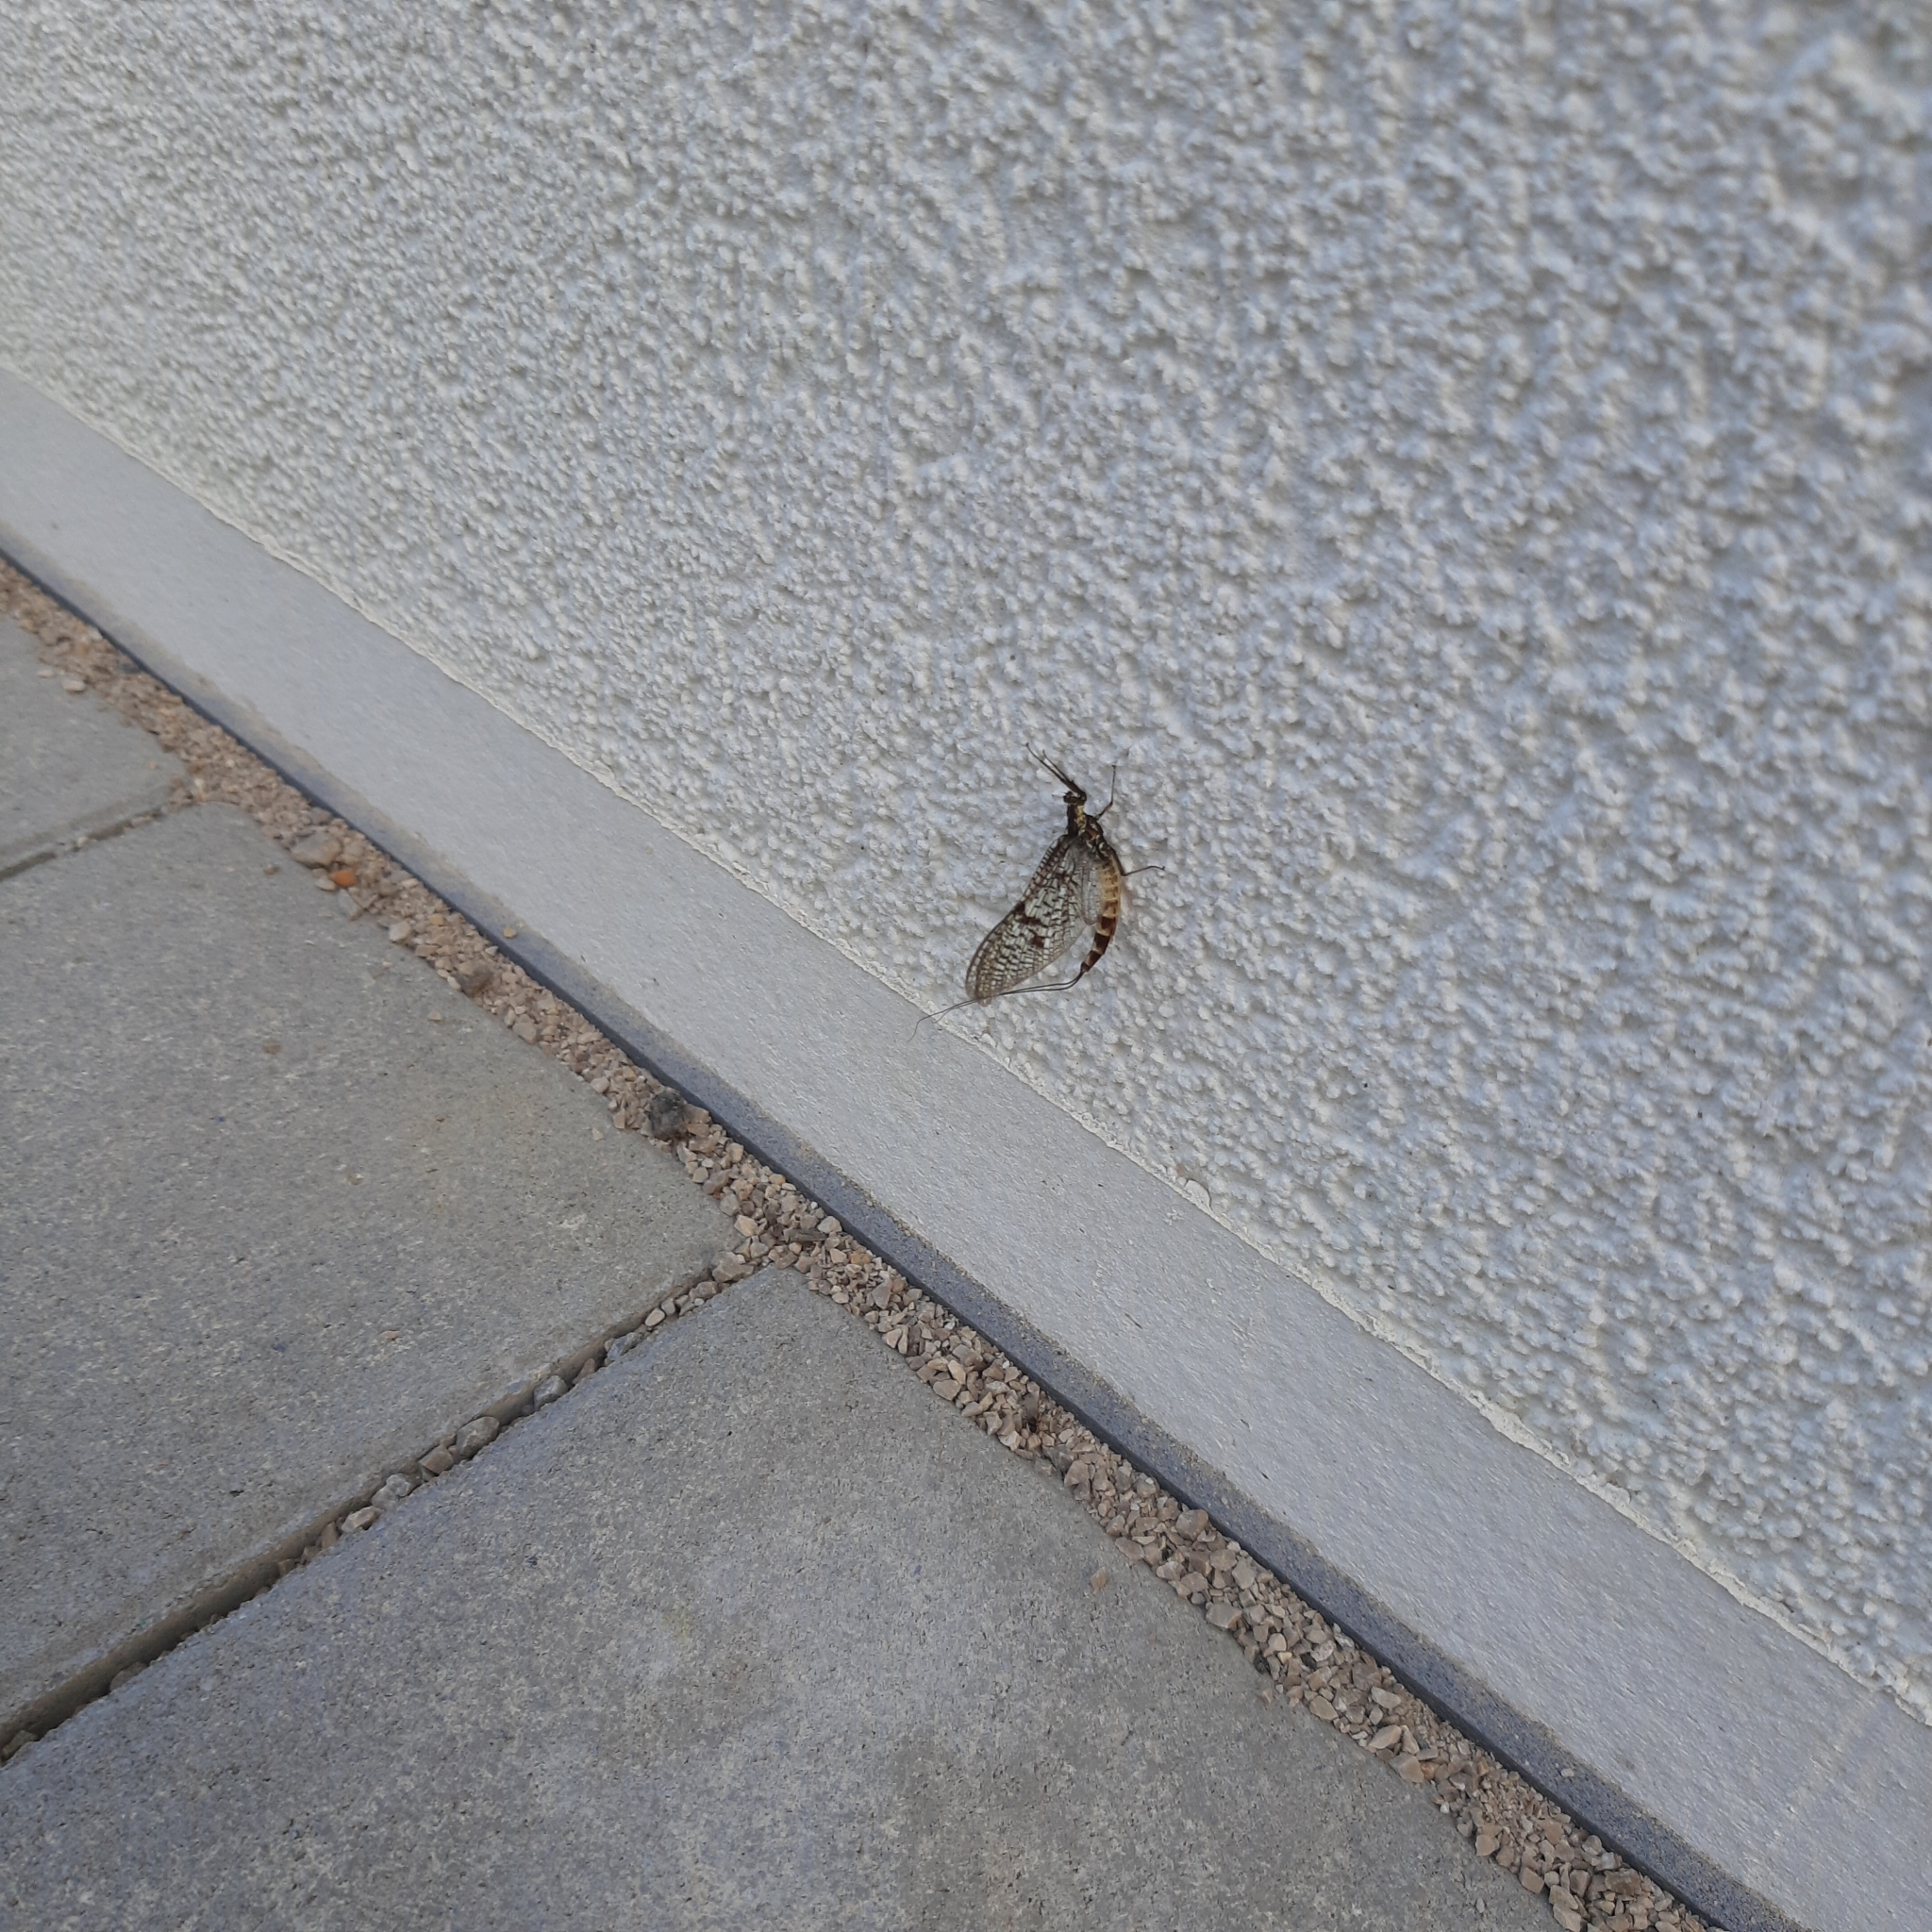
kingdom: Animalia
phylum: Arthropoda
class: Insecta
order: Ephemeroptera
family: Ephemeridae
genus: Ephemera
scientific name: Ephemera danica
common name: Green dun
